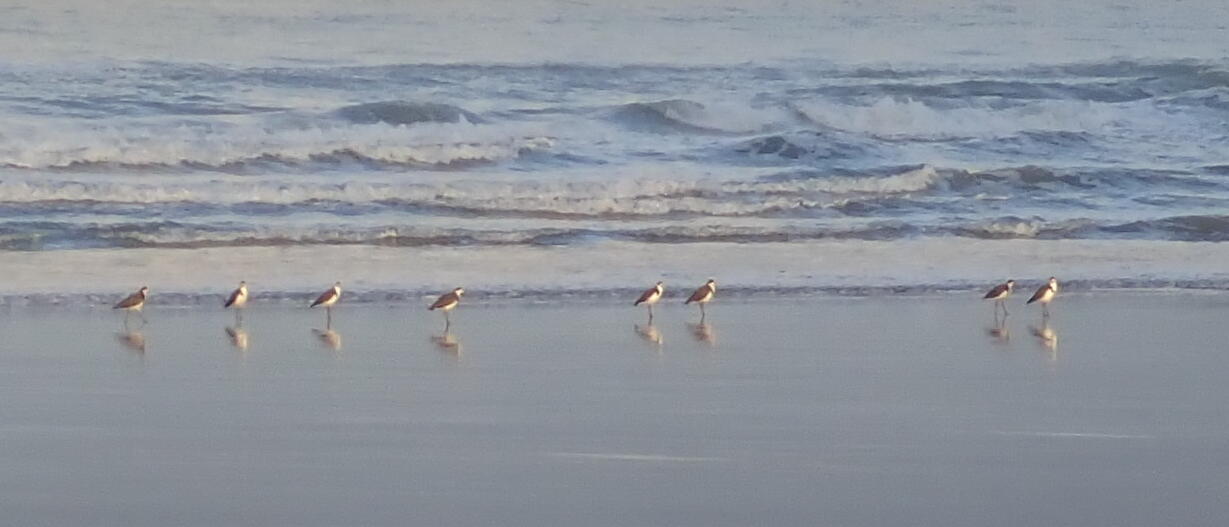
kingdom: Animalia
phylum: Chordata
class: Aves
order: Charadriiformes
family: Charadriidae
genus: Vanellus
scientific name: Vanellus miles
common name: Masked lapwing
